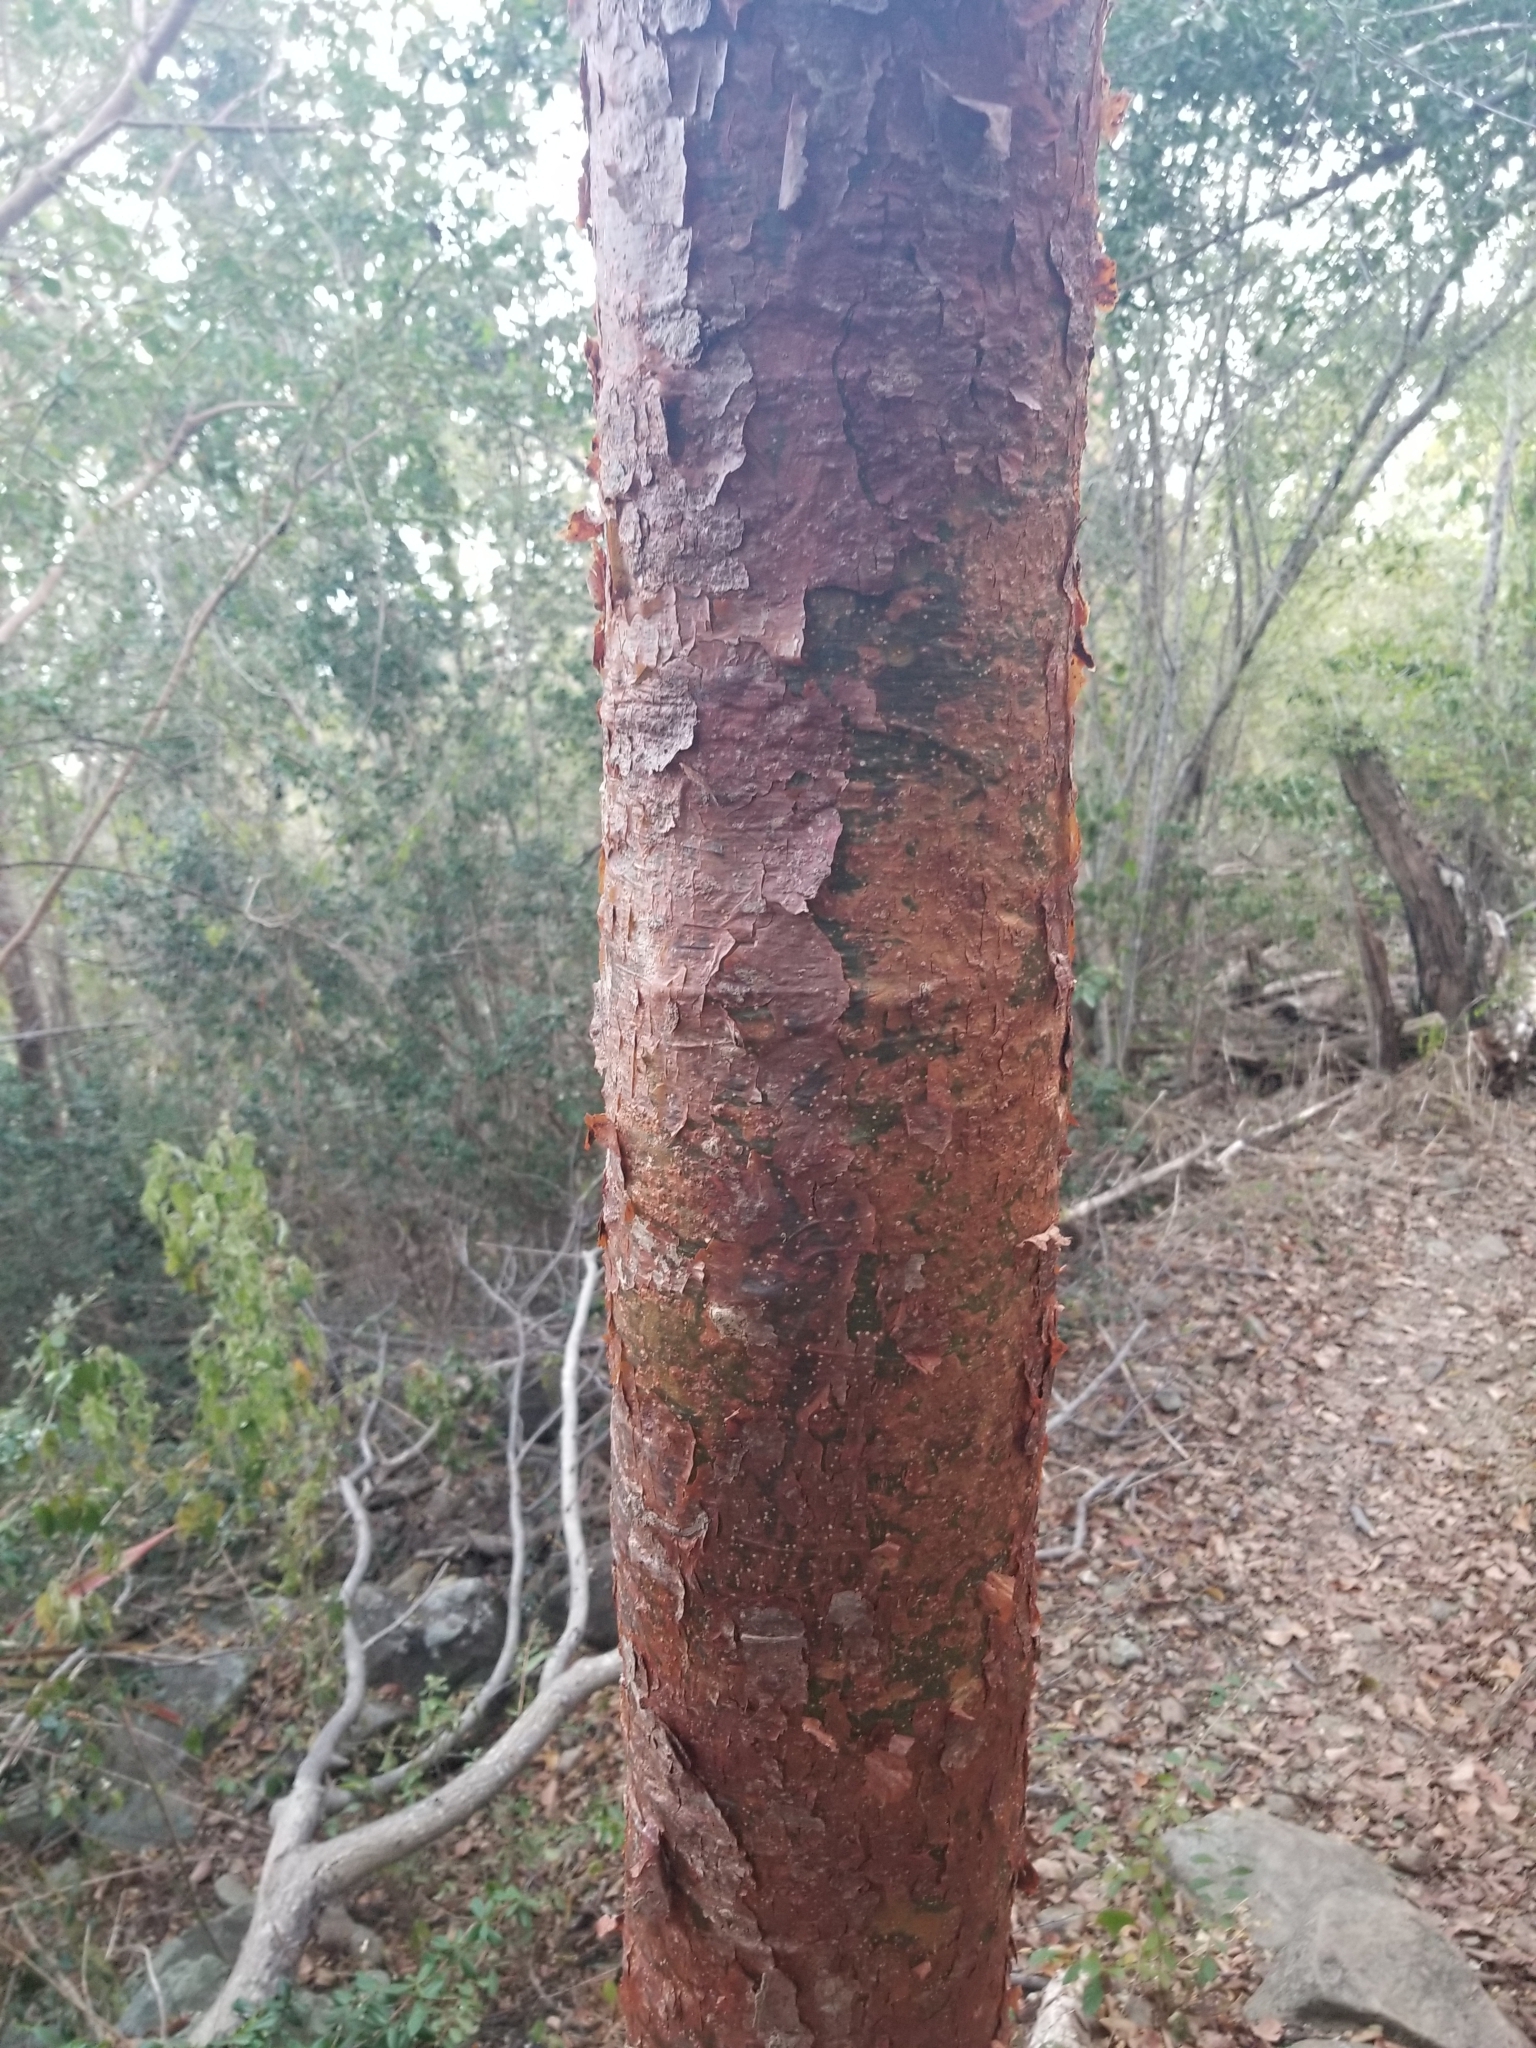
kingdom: Plantae
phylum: Tracheophyta
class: Magnoliopsida
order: Sapindales
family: Burseraceae
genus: Bursera
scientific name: Bursera simaruba
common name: Turpentine tree
